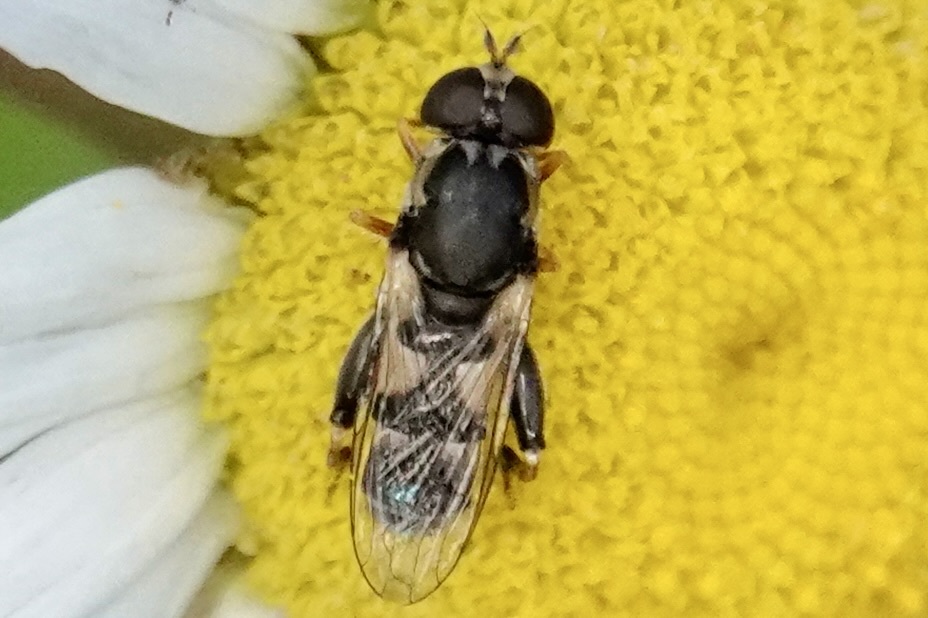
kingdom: Animalia
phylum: Arthropoda
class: Insecta
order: Diptera
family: Syrphidae
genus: Syritta
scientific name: Syritta pipiens
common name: Hover fly
